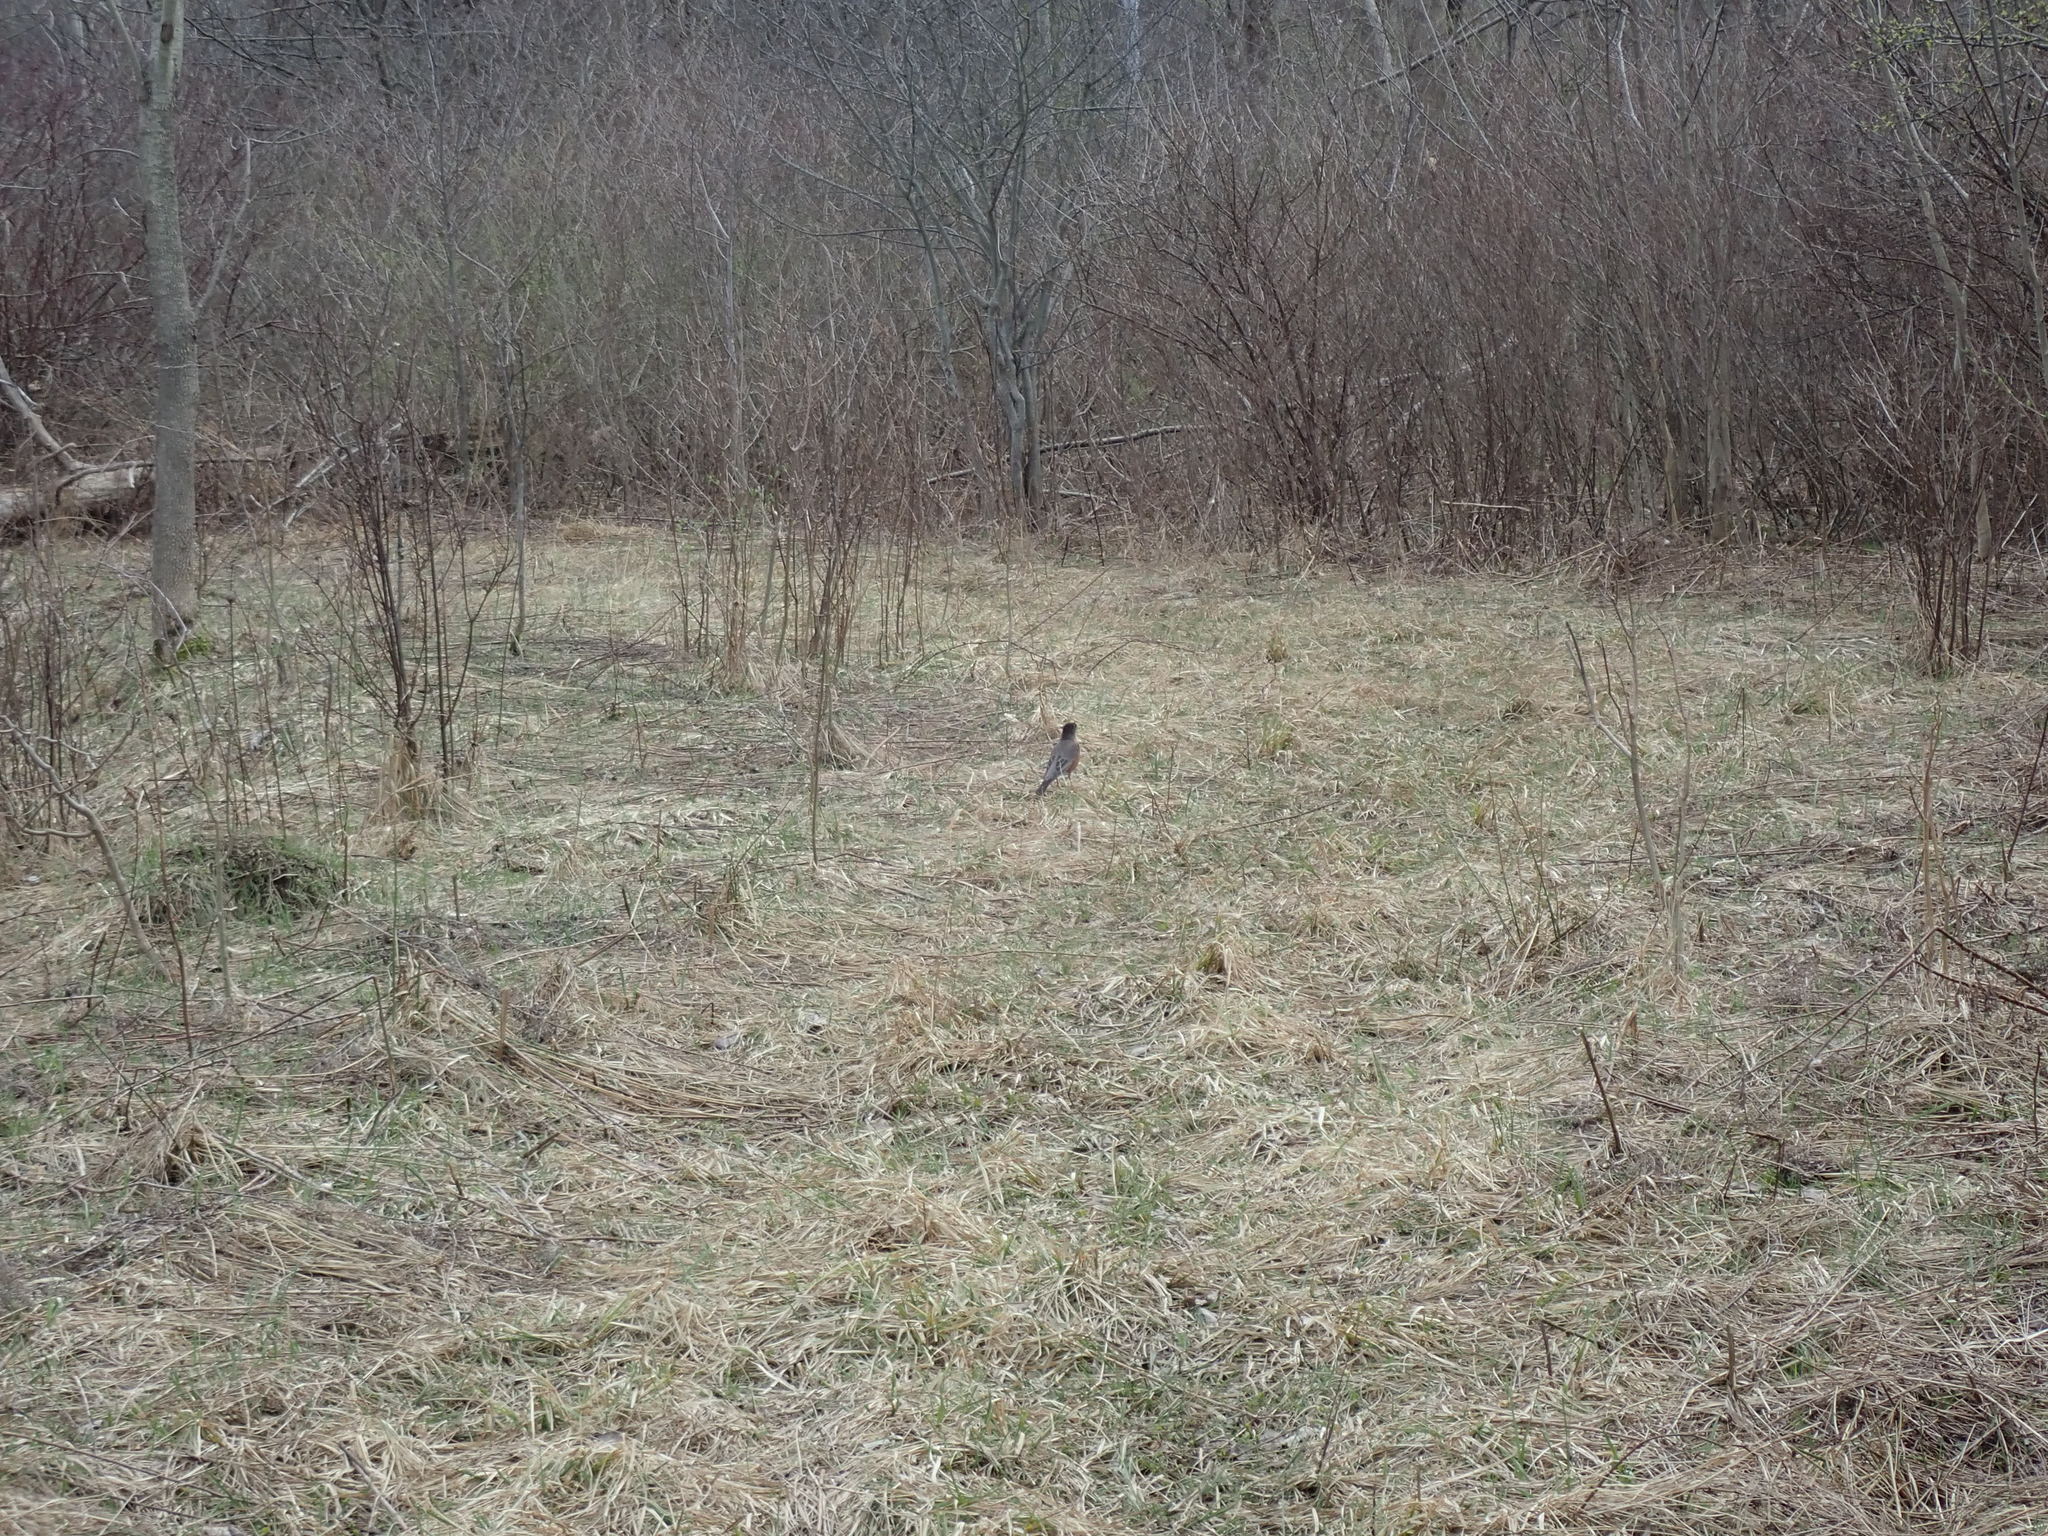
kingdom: Animalia
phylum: Chordata
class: Aves
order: Passeriformes
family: Turdidae
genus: Turdus
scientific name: Turdus migratorius
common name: American robin
